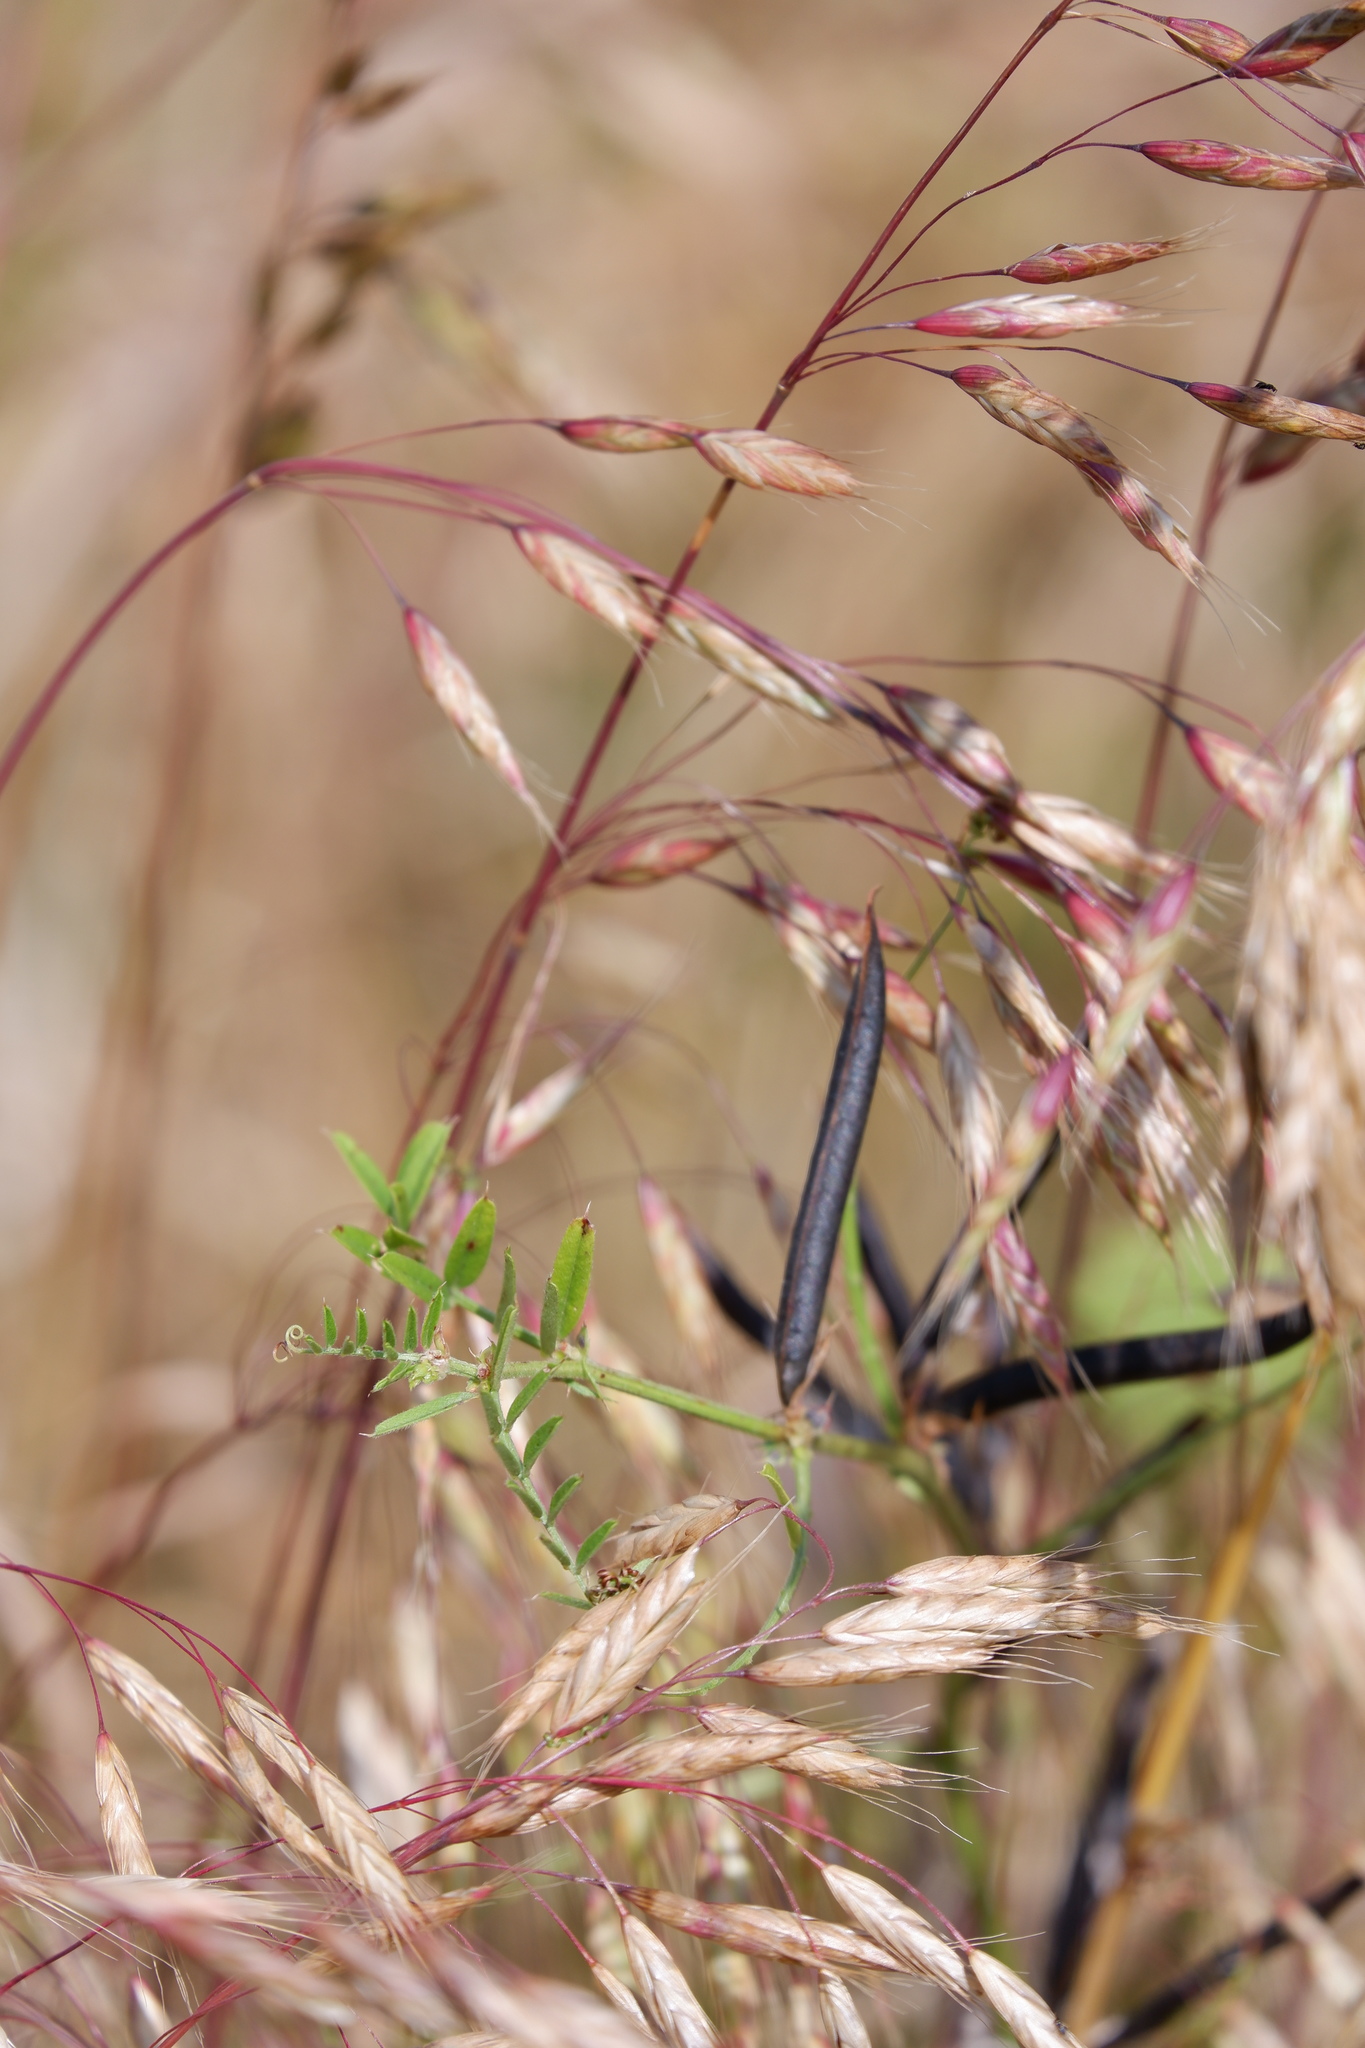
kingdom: Plantae
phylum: Tracheophyta
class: Magnoliopsida
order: Fabales
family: Fabaceae
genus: Vicia
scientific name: Vicia sativa
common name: Garden vetch
